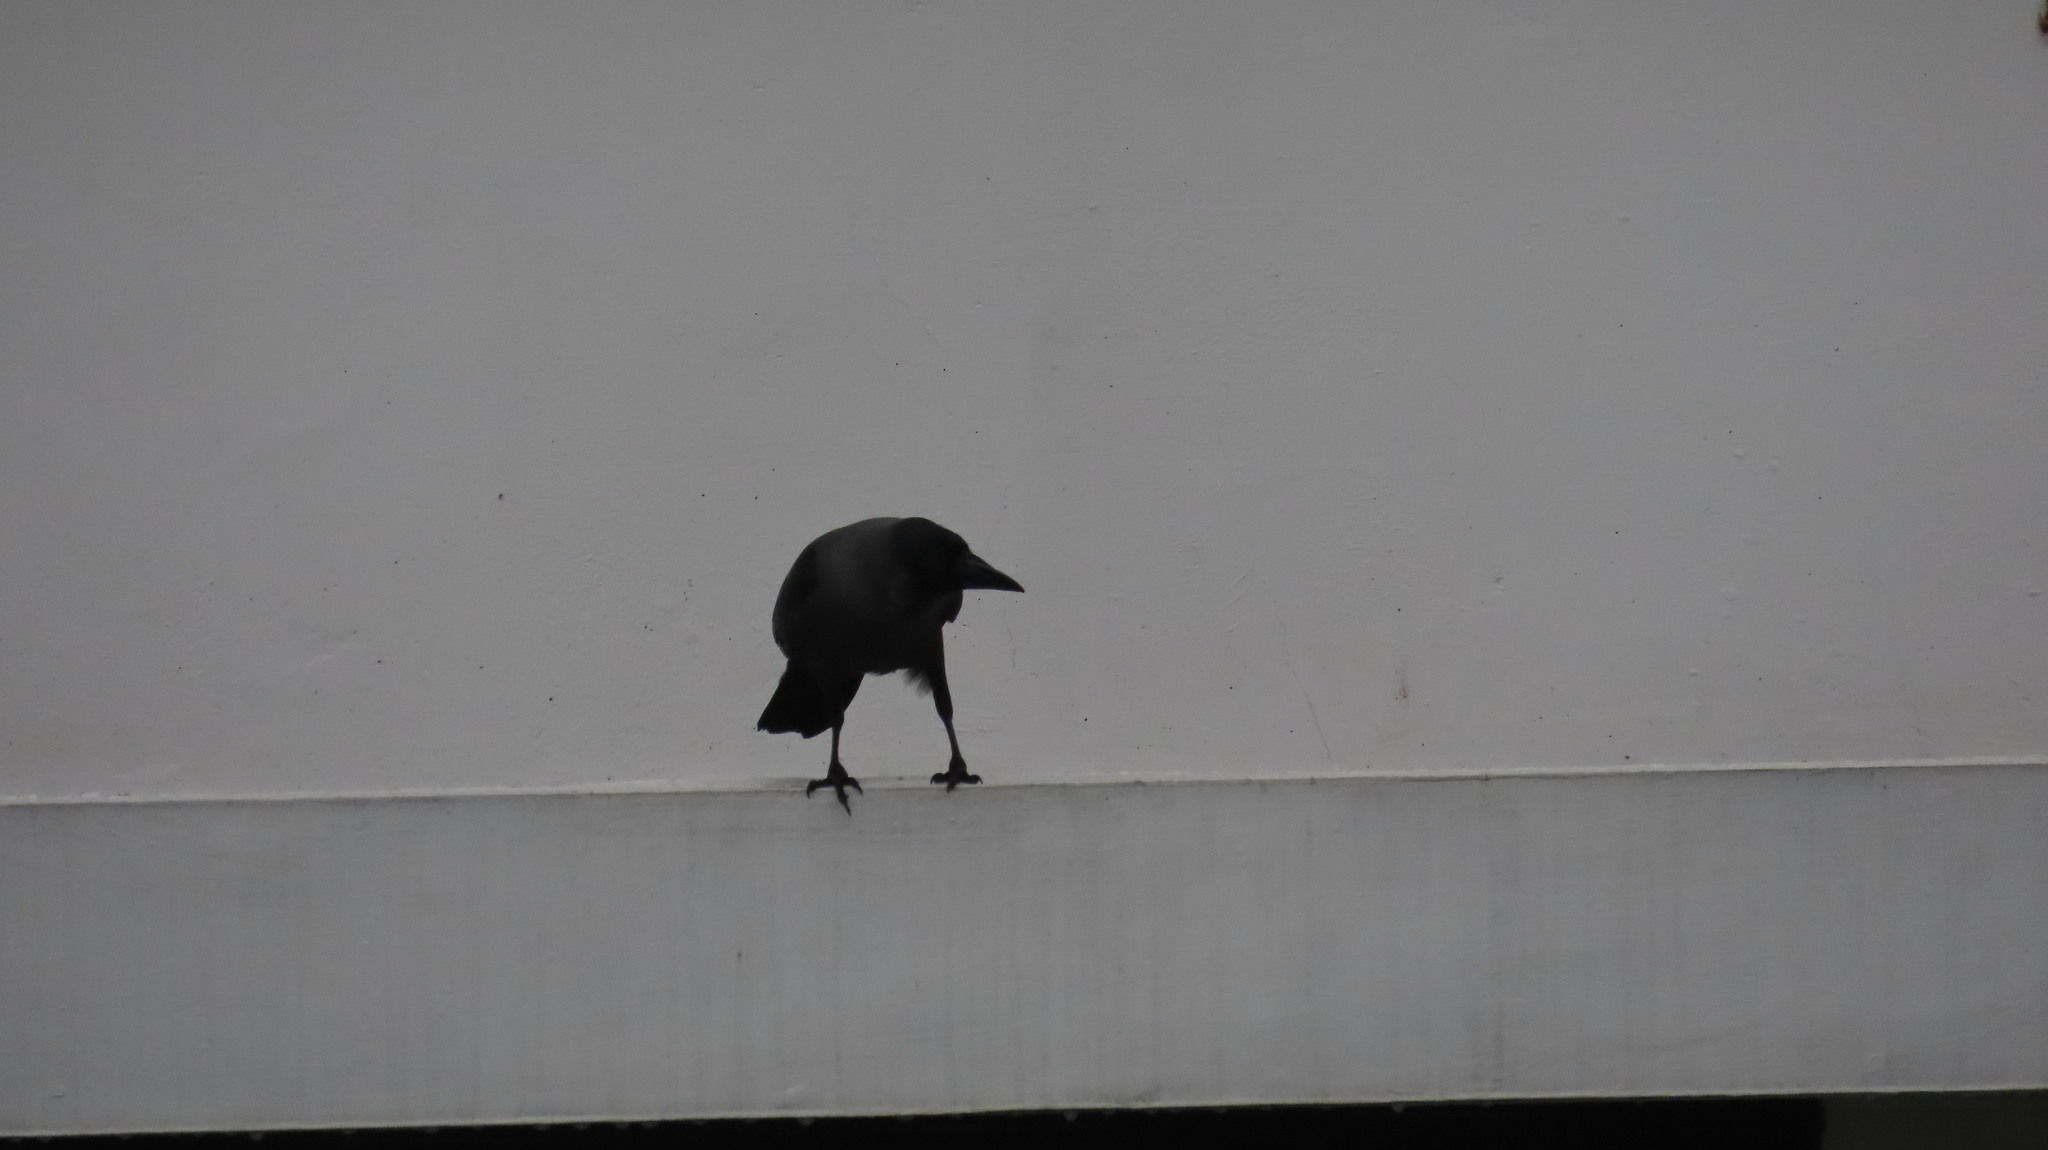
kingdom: Animalia
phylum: Chordata
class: Aves
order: Passeriformes
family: Corvidae
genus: Corvus
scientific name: Corvus splendens
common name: House crow
